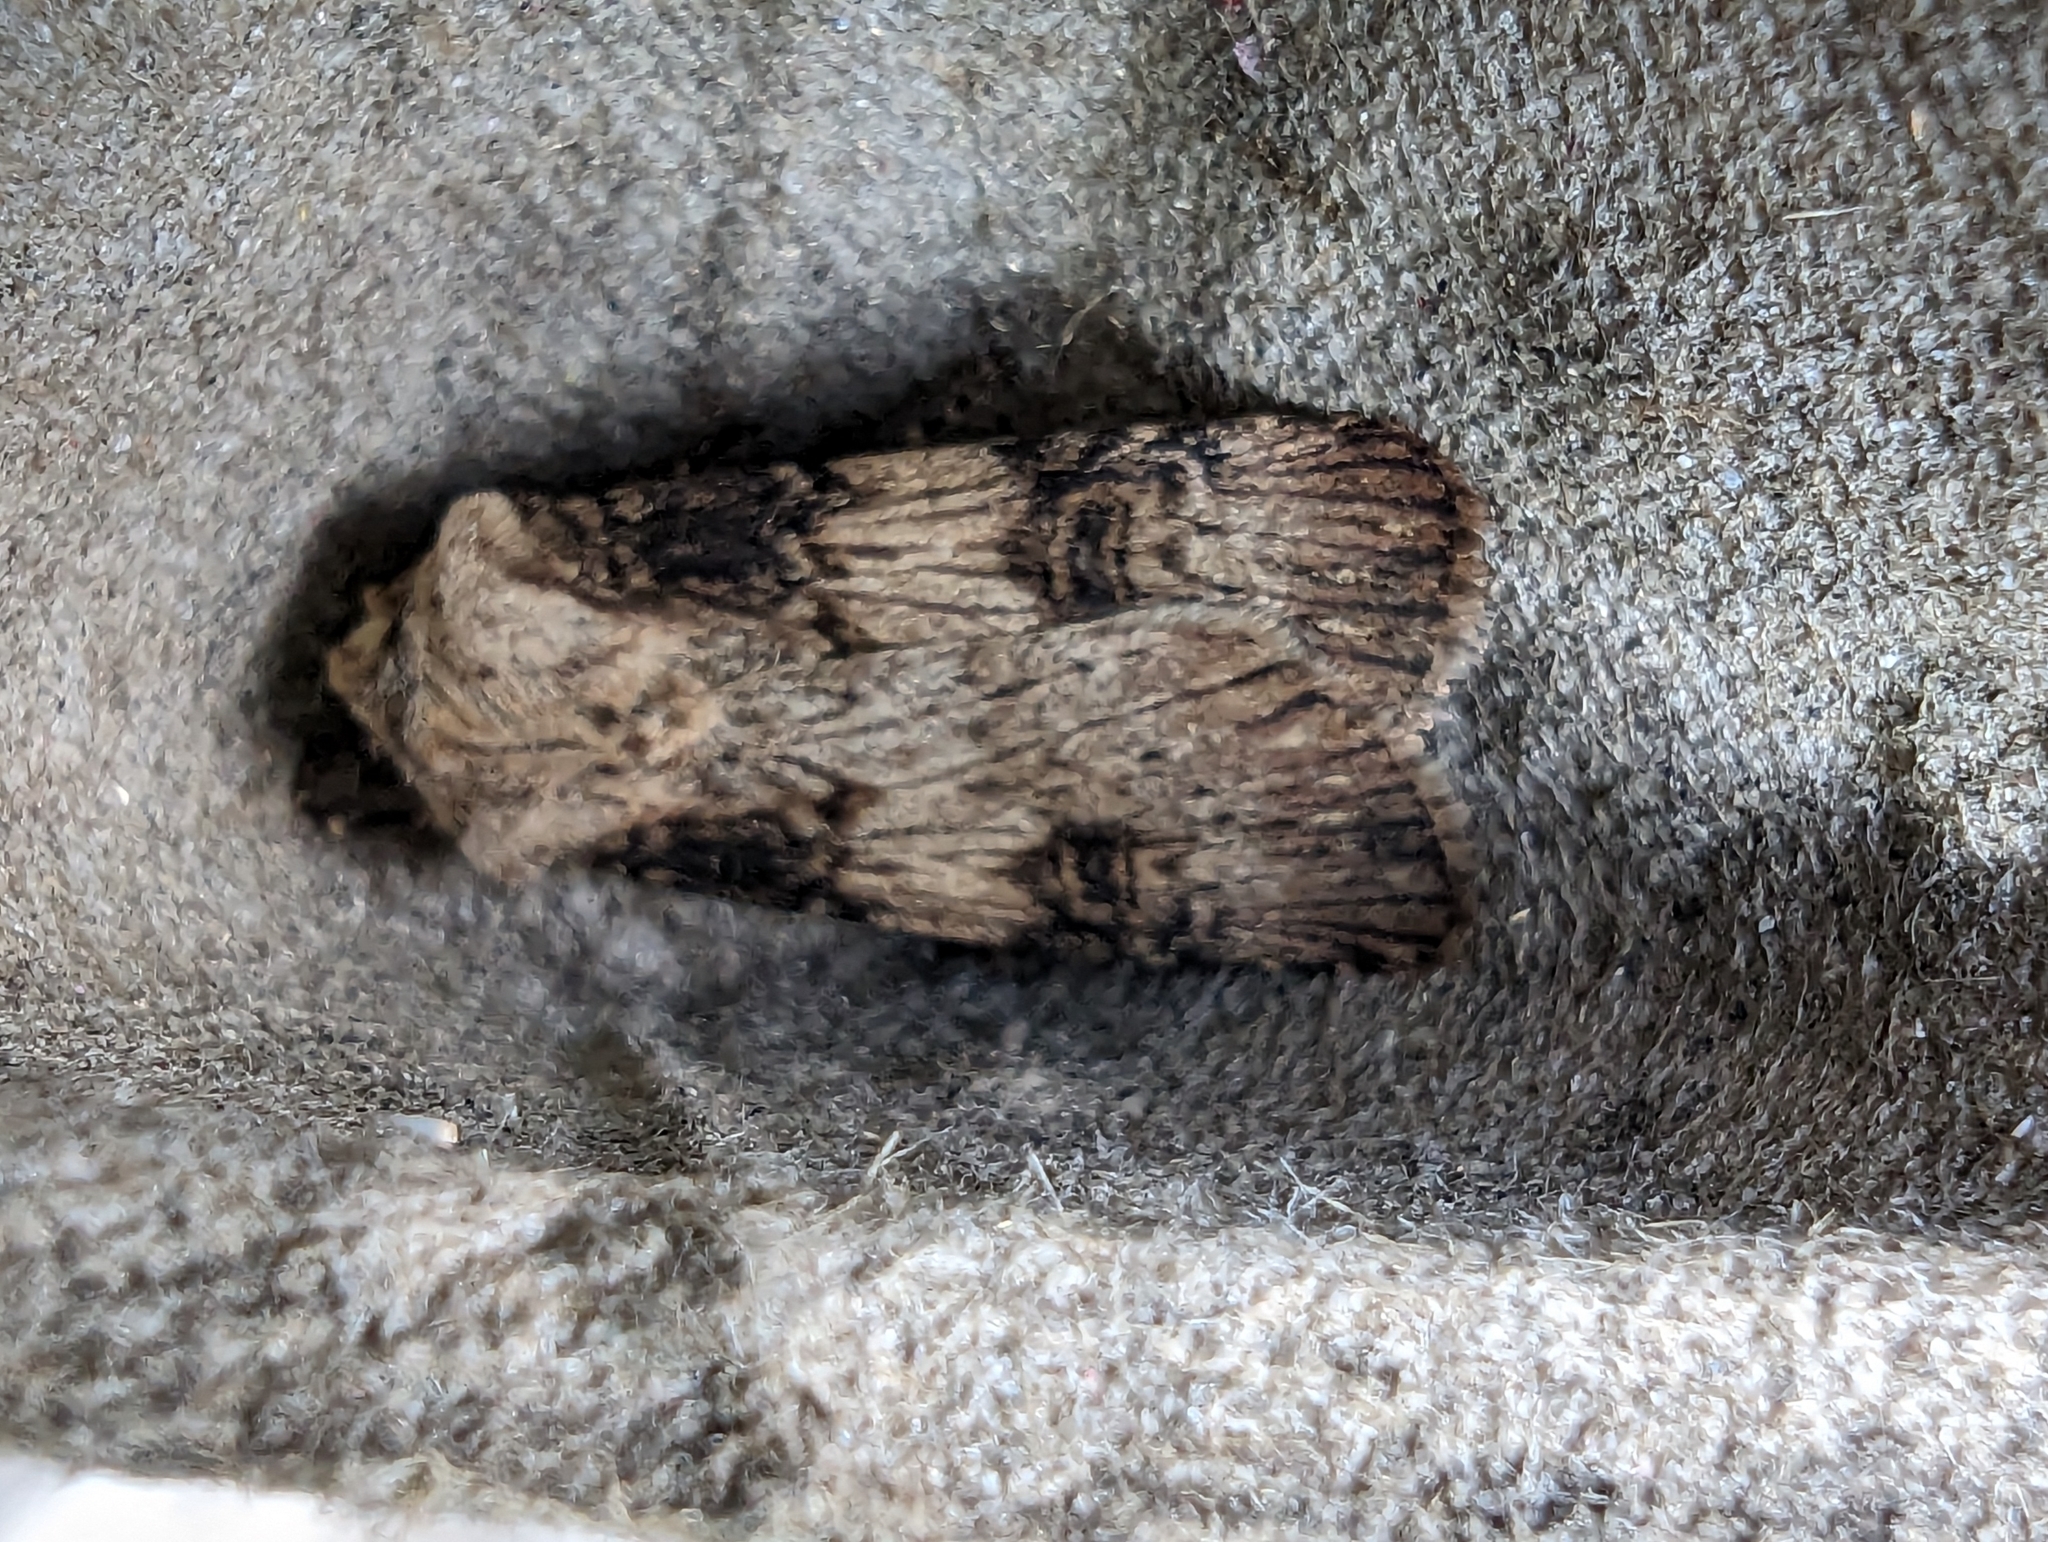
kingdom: Animalia
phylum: Arthropoda
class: Insecta
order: Lepidoptera
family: Noctuidae
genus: Agrotis
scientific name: Agrotis puta
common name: Shuttle-shaped dart
